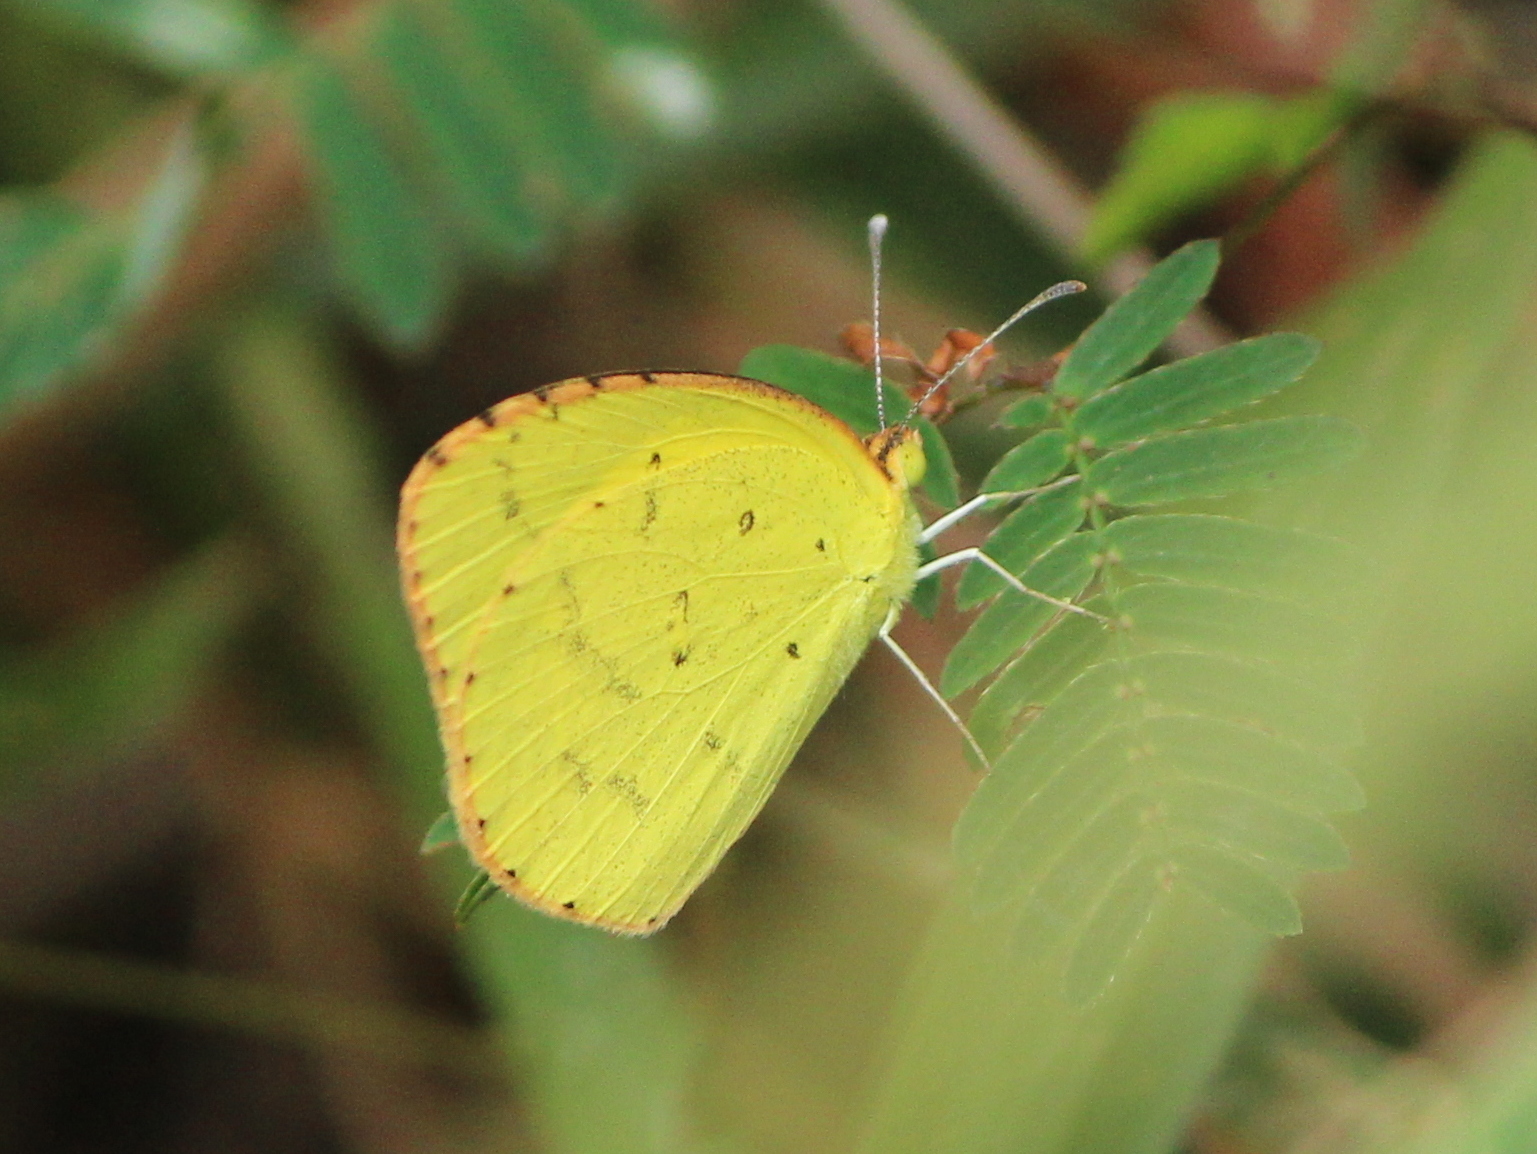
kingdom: Animalia
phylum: Arthropoda
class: Insecta
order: Lepidoptera
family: Pieridae
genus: Eurema
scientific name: Eurema brigitta
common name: Small grass yellow
